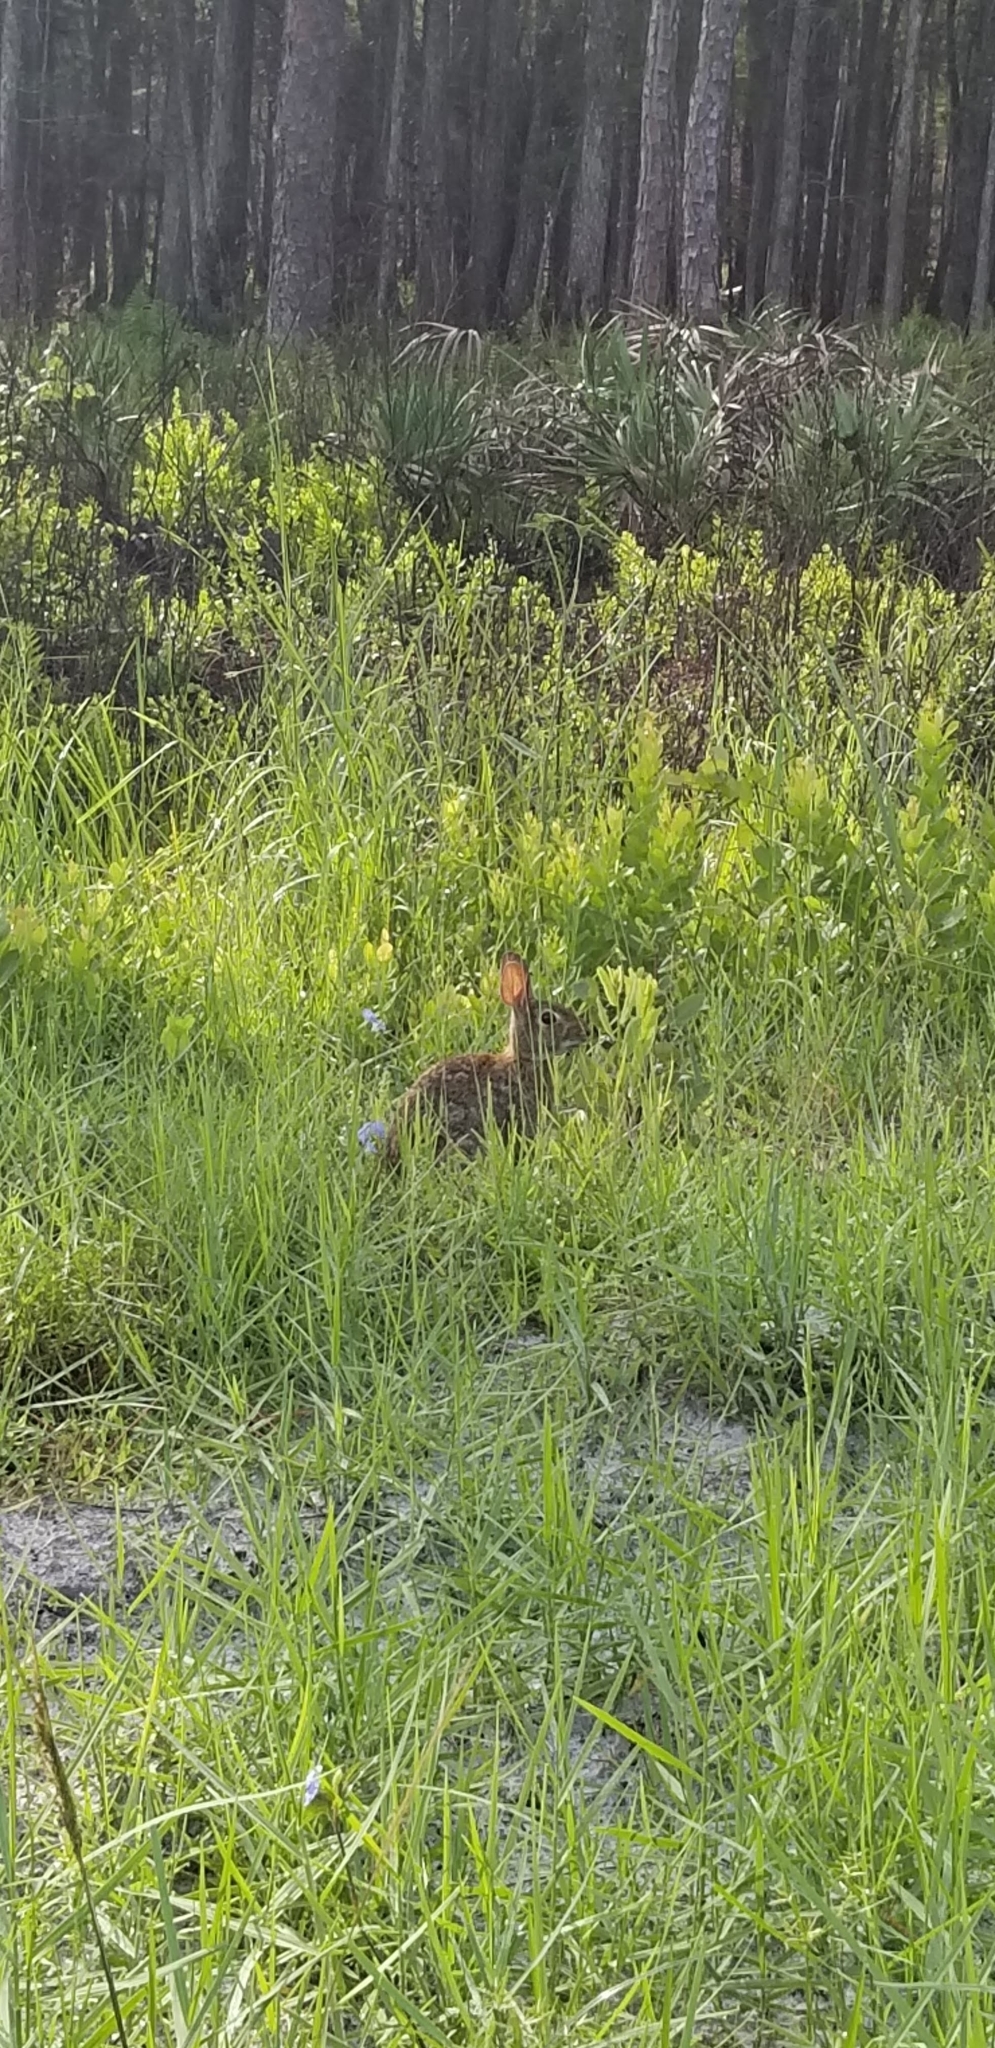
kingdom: Animalia
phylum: Chordata
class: Mammalia
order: Lagomorpha
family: Leporidae
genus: Sylvilagus
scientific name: Sylvilagus floridanus
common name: Eastern cottontail
